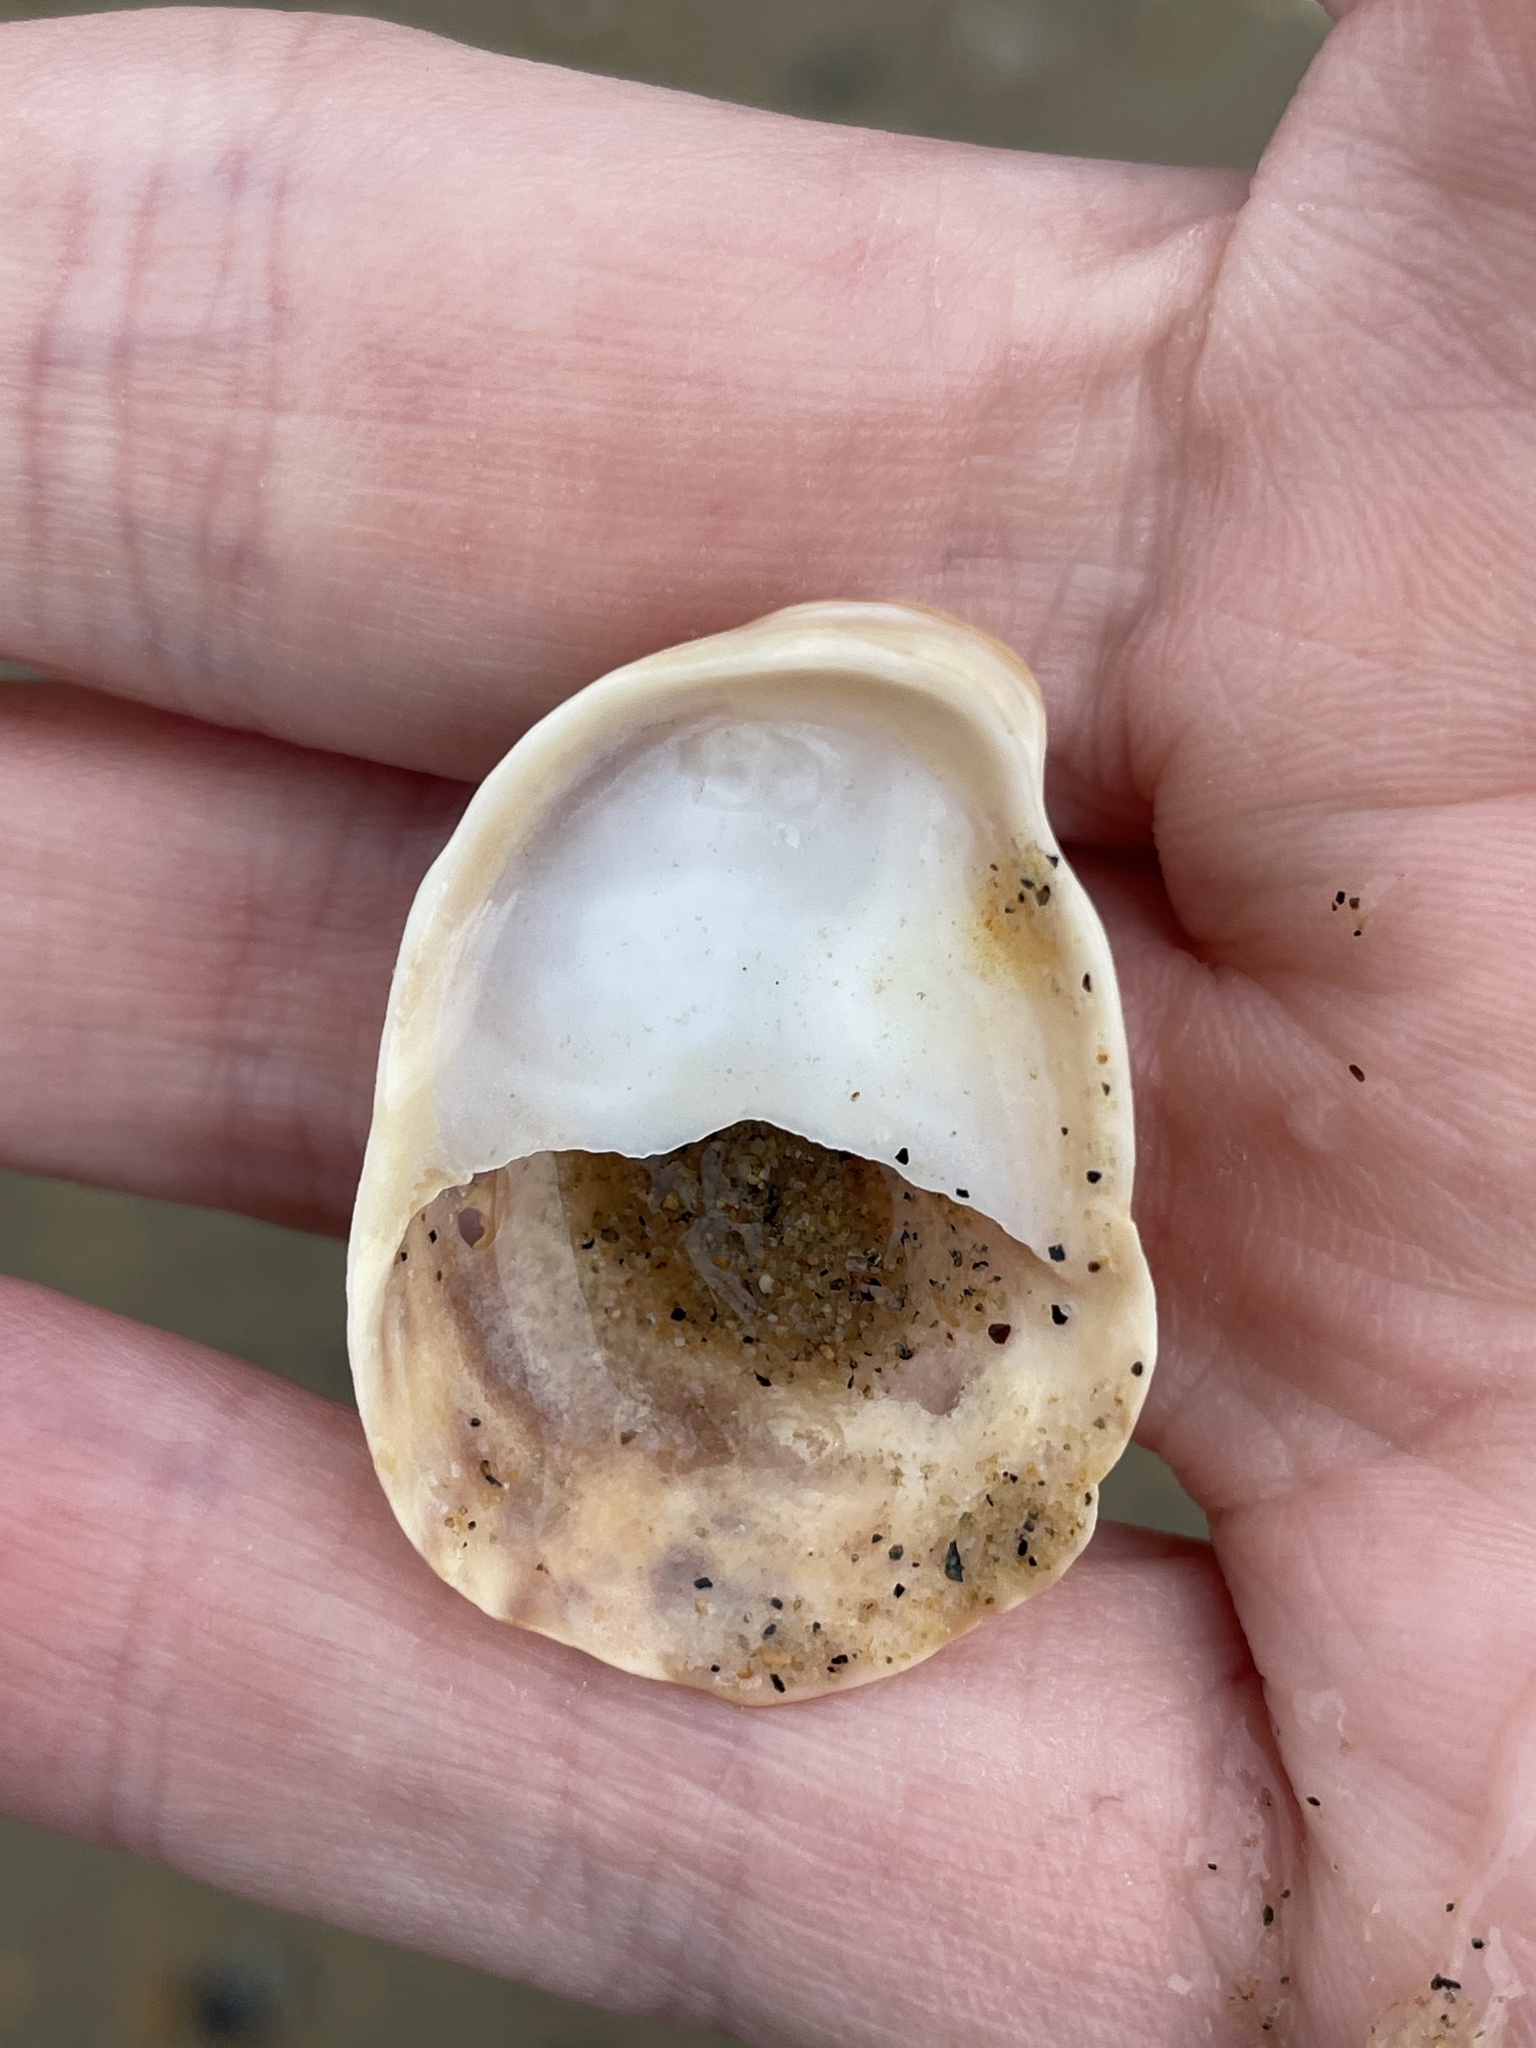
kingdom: Animalia
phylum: Mollusca
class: Gastropoda
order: Littorinimorpha
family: Calyptraeidae
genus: Crepidula
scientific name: Crepidula fornicata
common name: Slipper limpet
